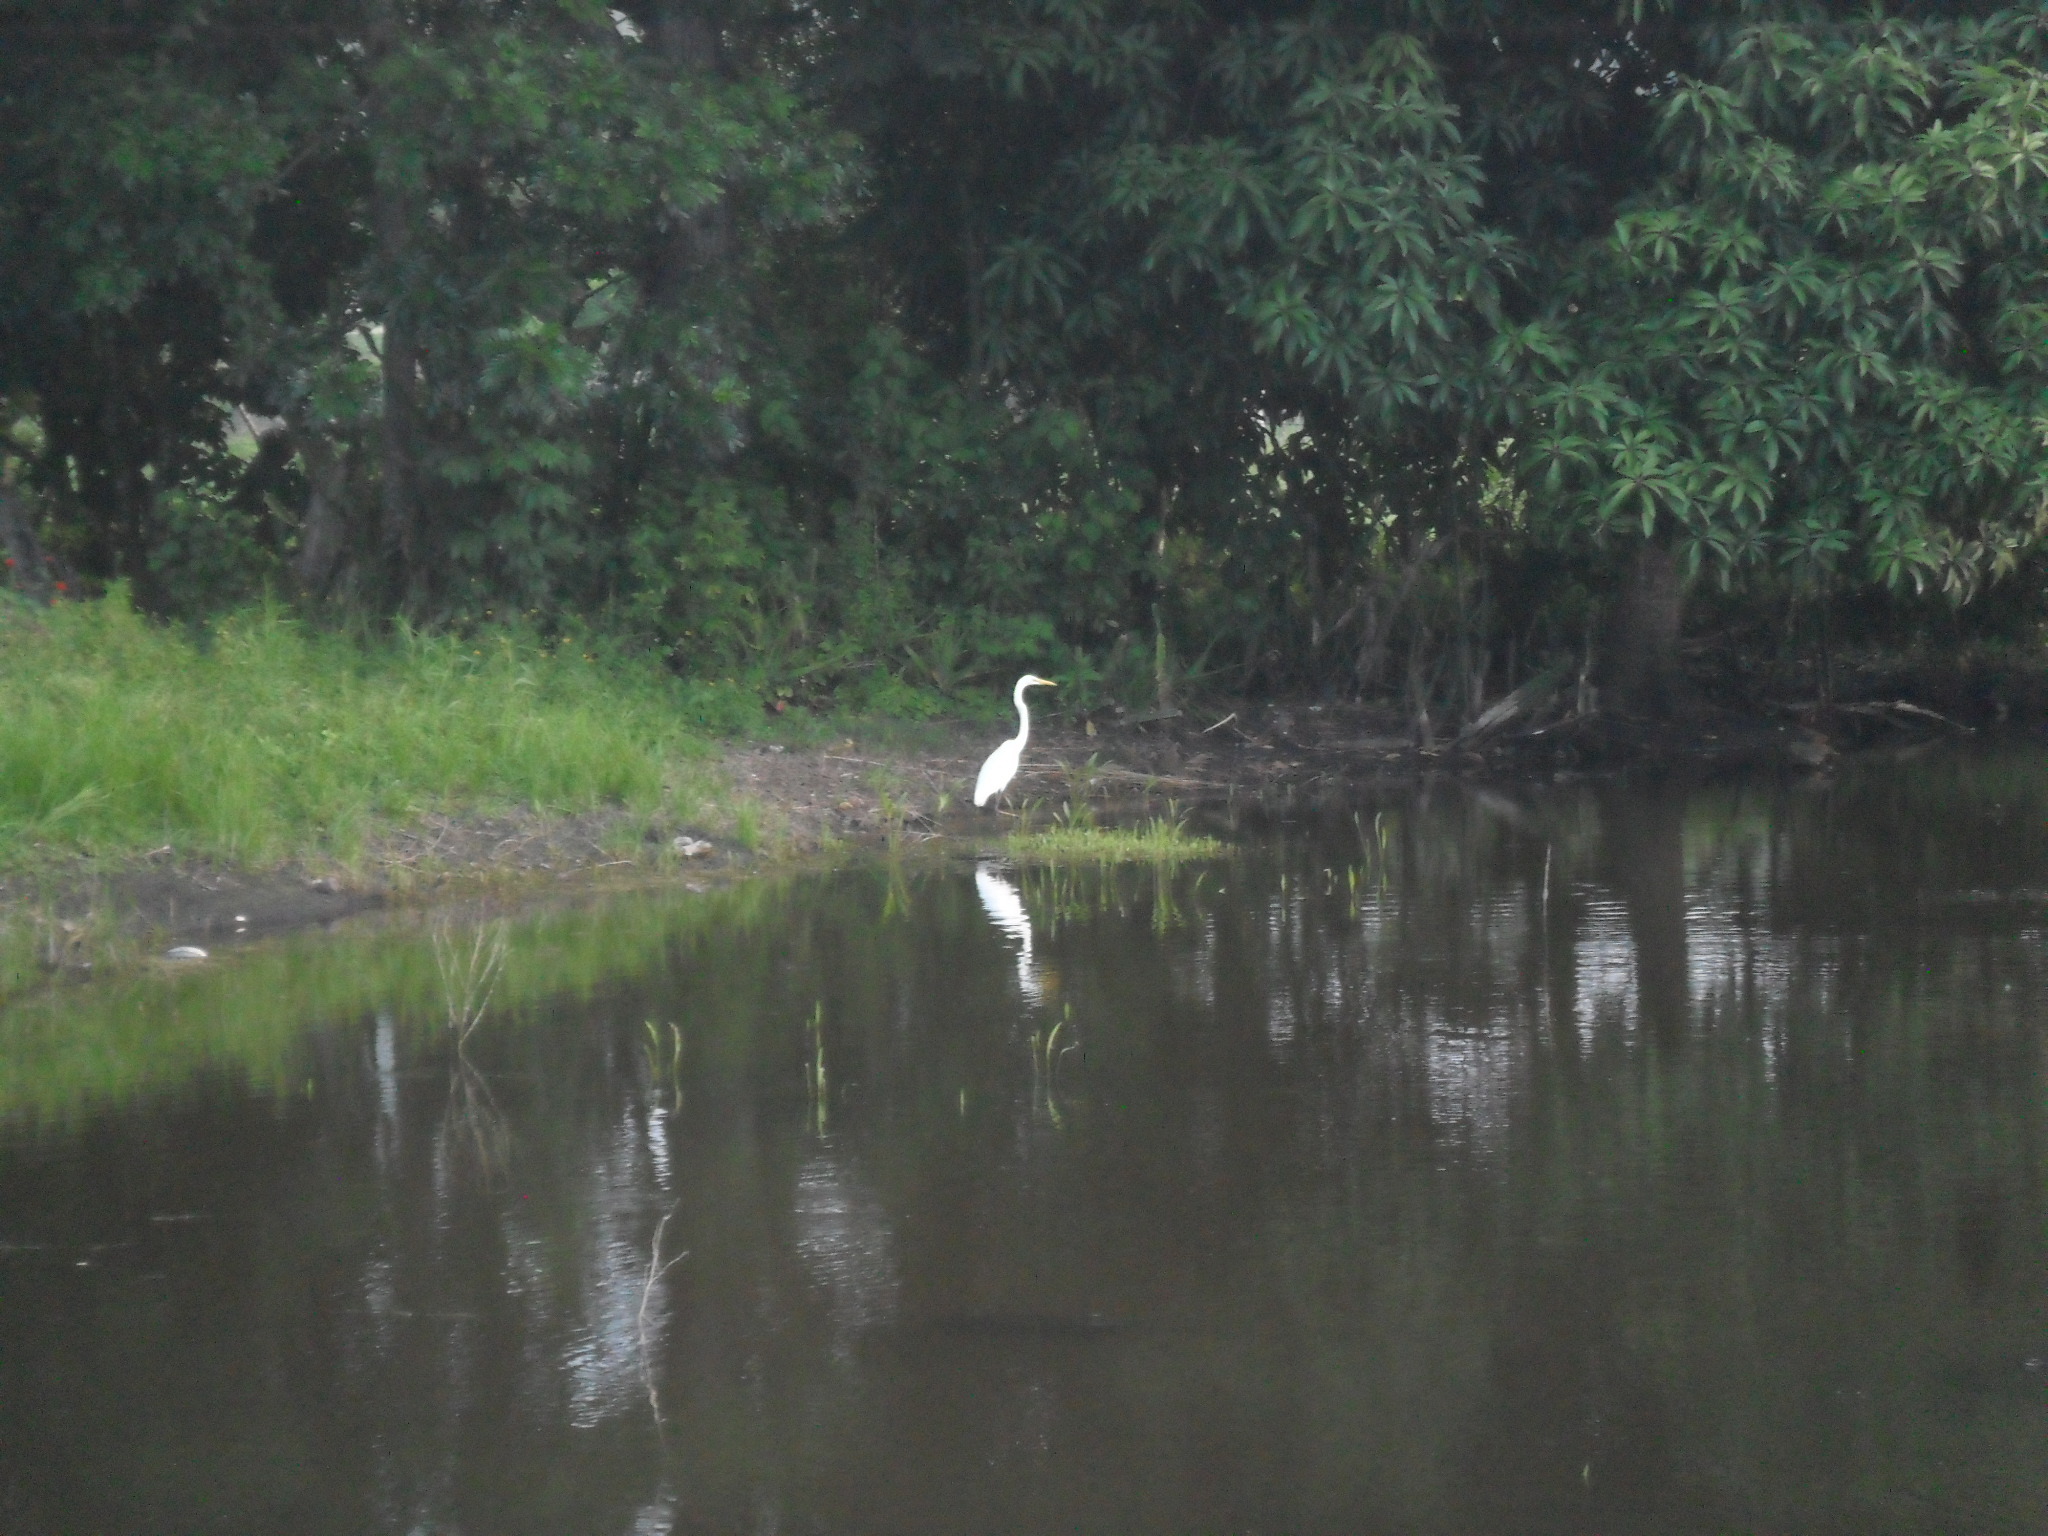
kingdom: Animalia
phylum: Chordata
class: Aves
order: Pelecaniformes
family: Ardeidae
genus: Ardea
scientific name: Ardea alba
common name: Great egret
